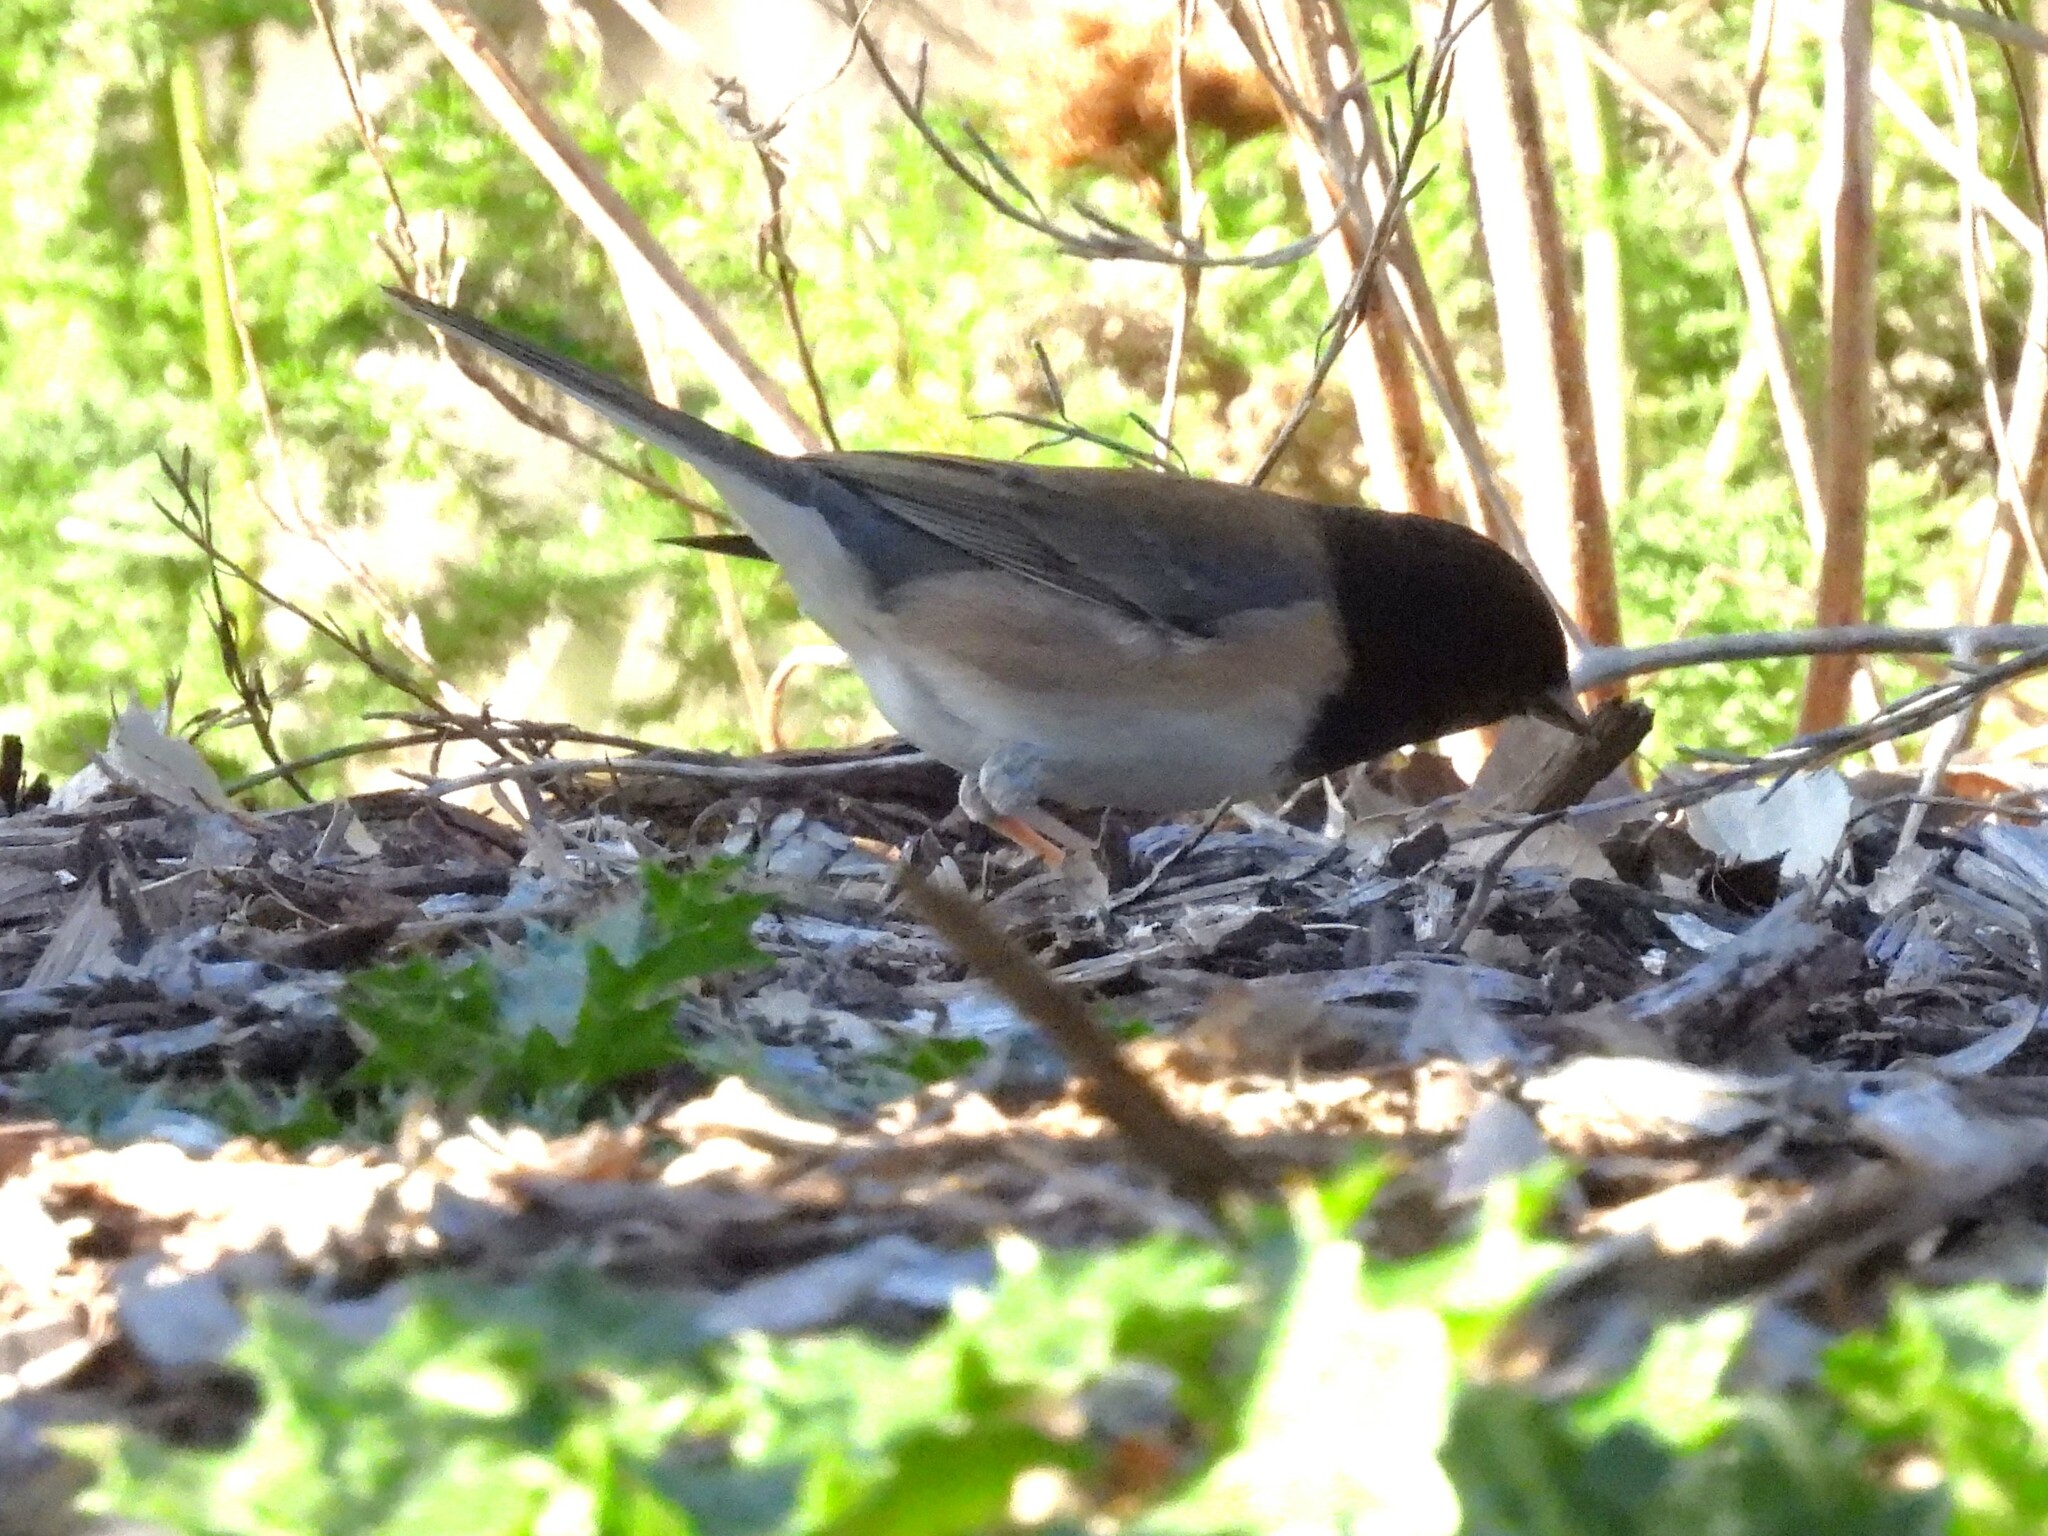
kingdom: Animalia
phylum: Chordata
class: Aves
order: Passeriformes
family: Passerellidae
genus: Junco
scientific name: Junco hyemalis
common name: Dark-eyed junco
